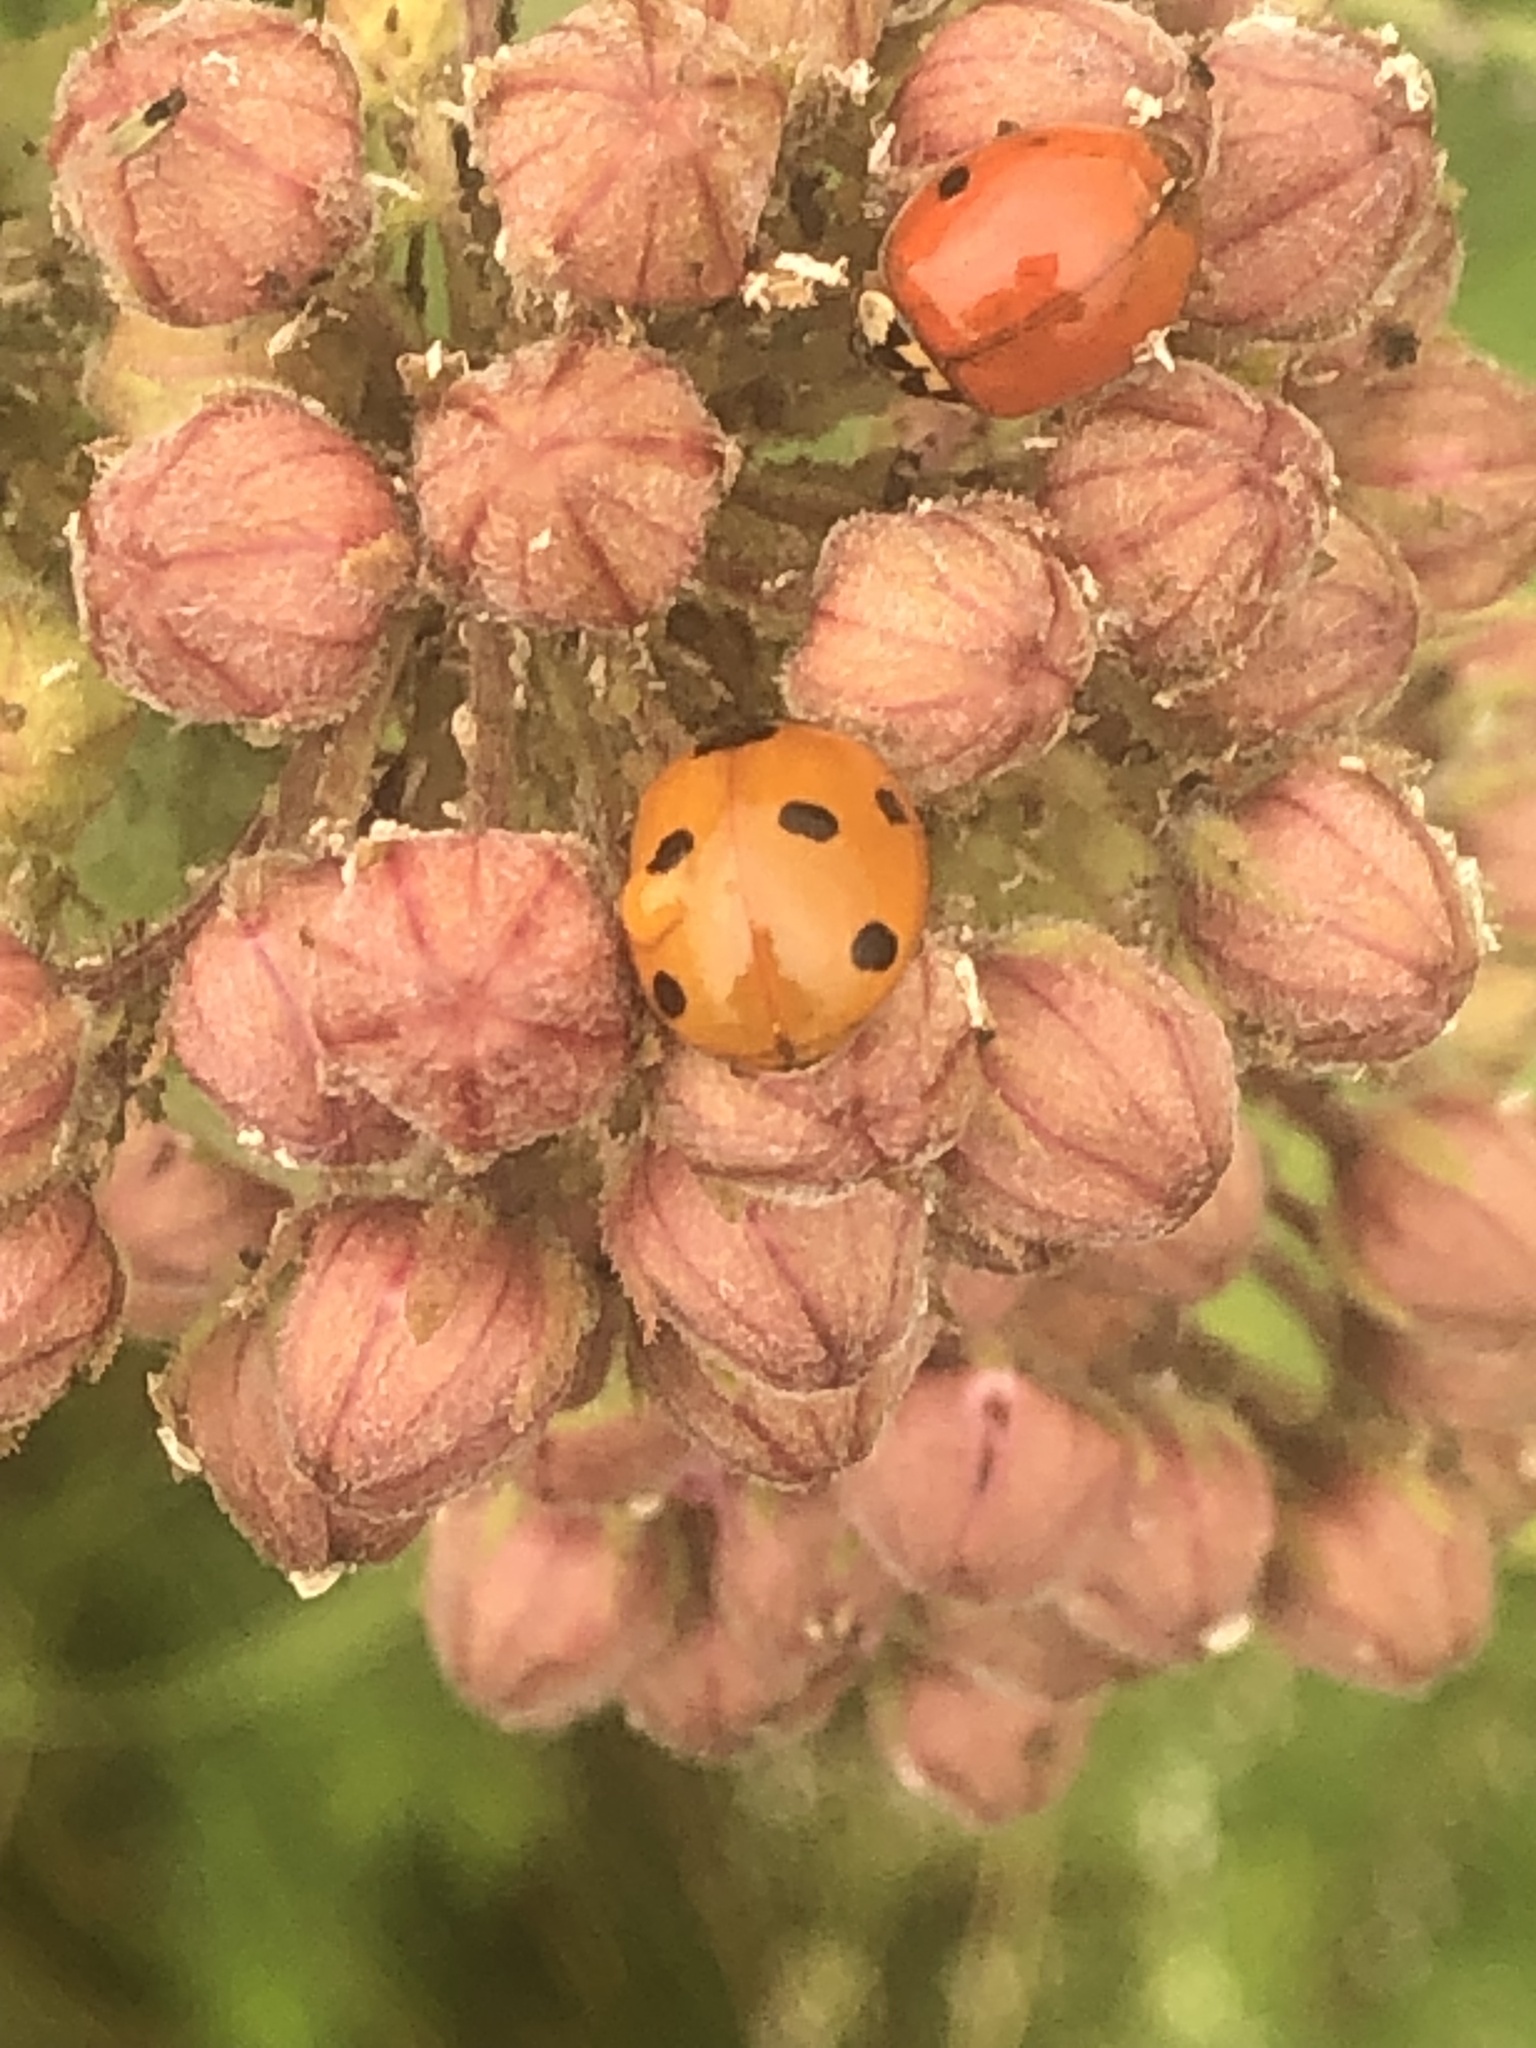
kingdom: Animalia
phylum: Arthropoda
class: Insecta
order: Coleoptera
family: Coccinellidae
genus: Coccinella
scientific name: Coccinella septempunctata
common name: Sevenspotted lady beetle
